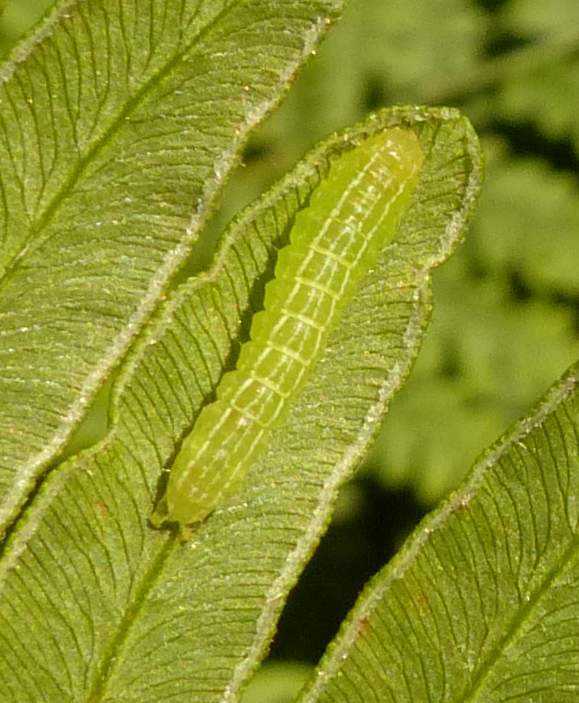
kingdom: Animalia
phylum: Arthropoda
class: Insecta
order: Lepidoptera
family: Noctuidae
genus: Callopistria
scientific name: Callopistria cordata
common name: Silver-spotted fern moth
